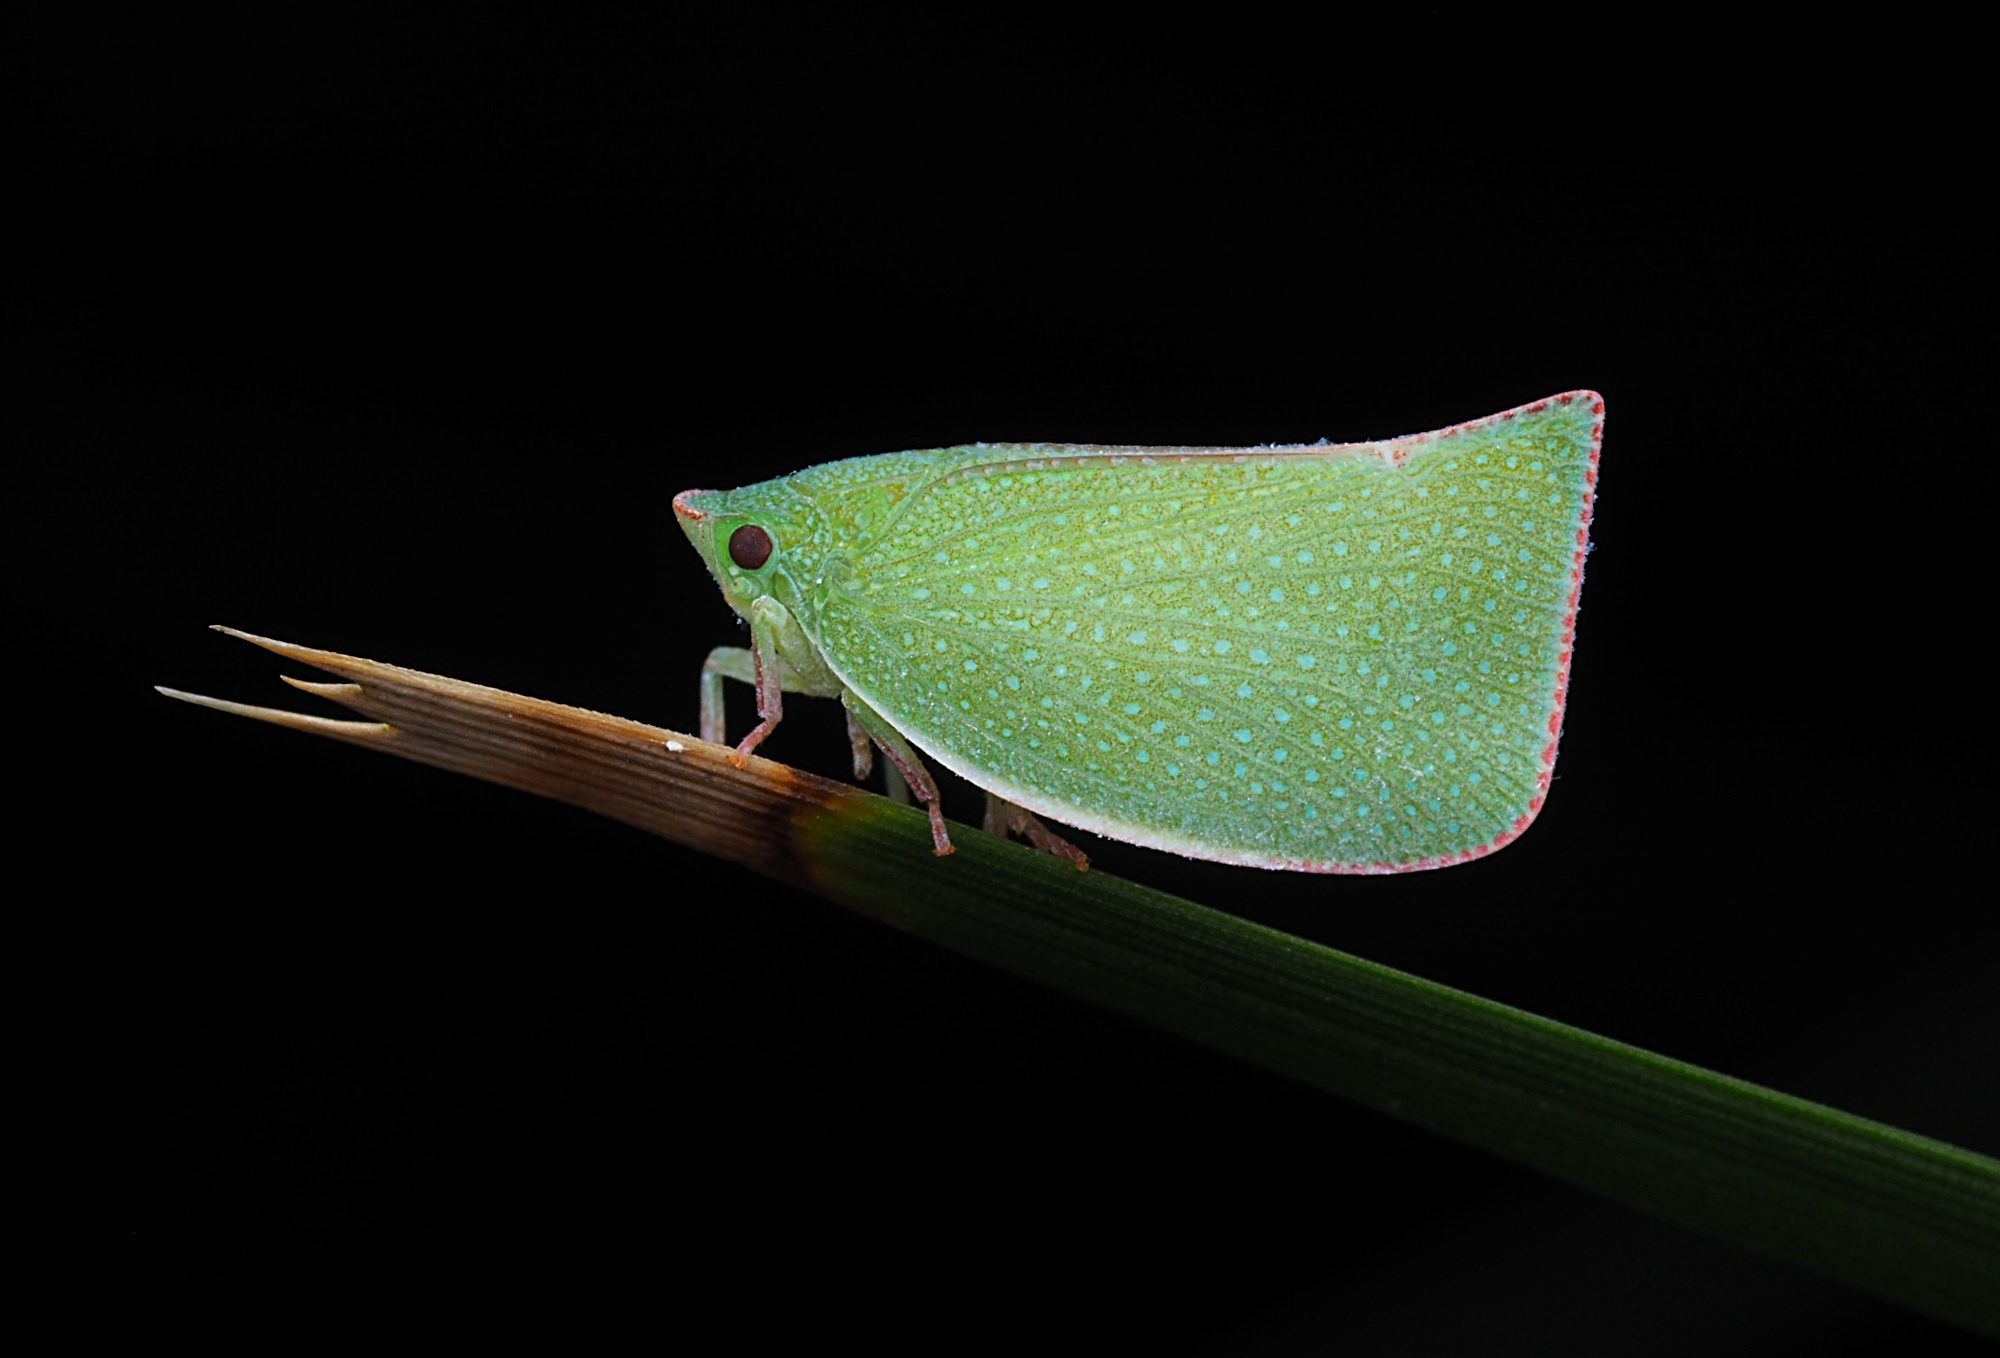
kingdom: Animalia
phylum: Arthropoda
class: Insecta
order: Hemiptera
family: Flatidae
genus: Siphanta
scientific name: Siphanta acuta
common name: Torpedo bug
